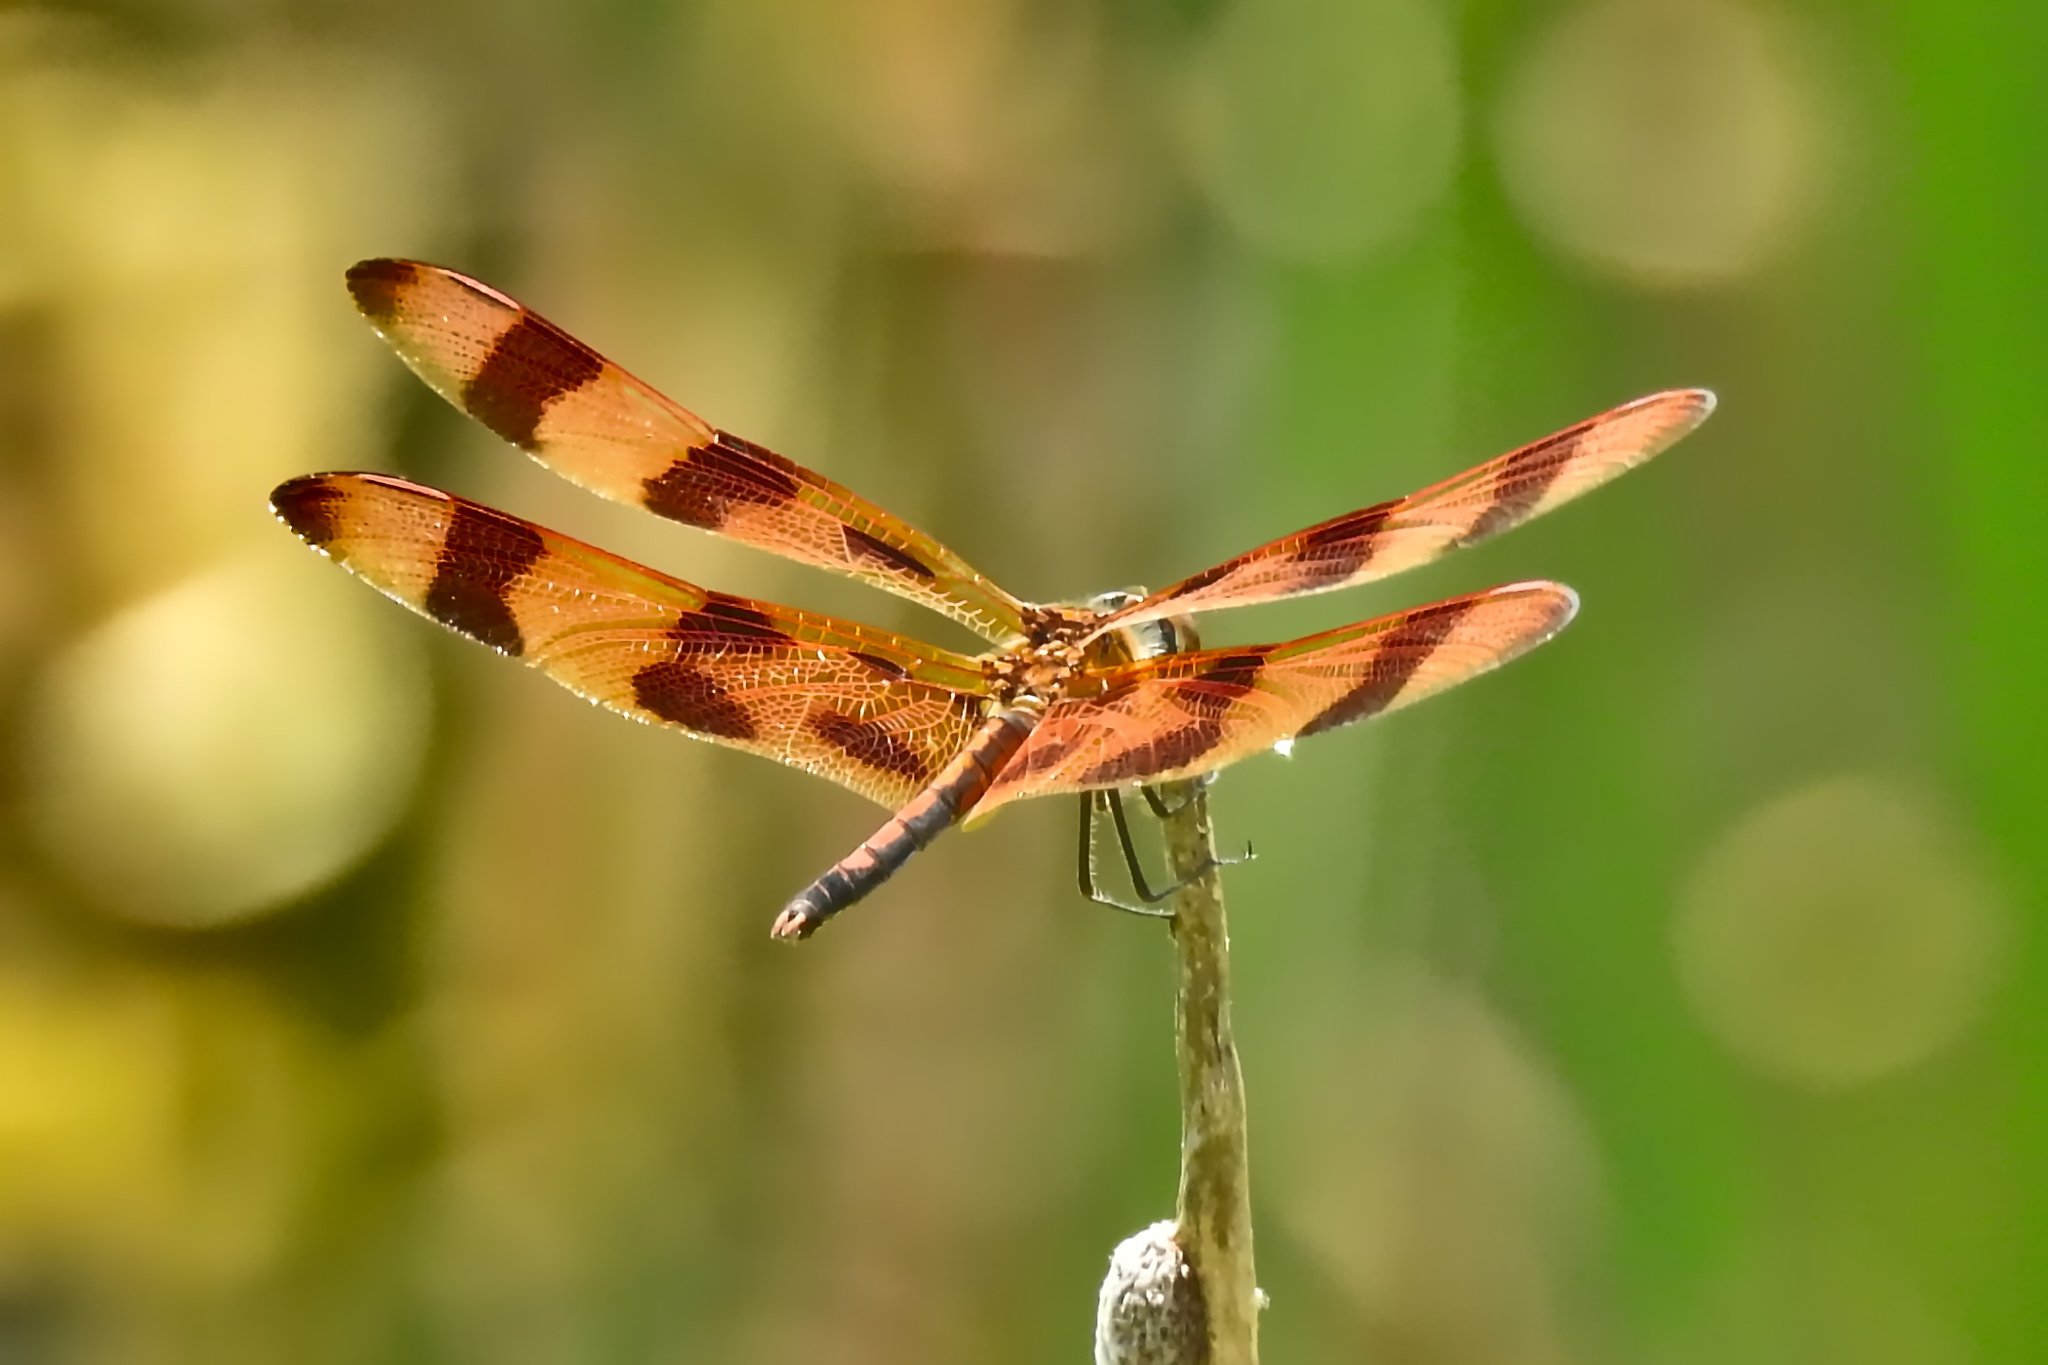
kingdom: Animalia
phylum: Arthropoda
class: Insecta
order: Odonata
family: Libellulidae
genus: Celithemis
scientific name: Celithemis eponina
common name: Halloween pennant
